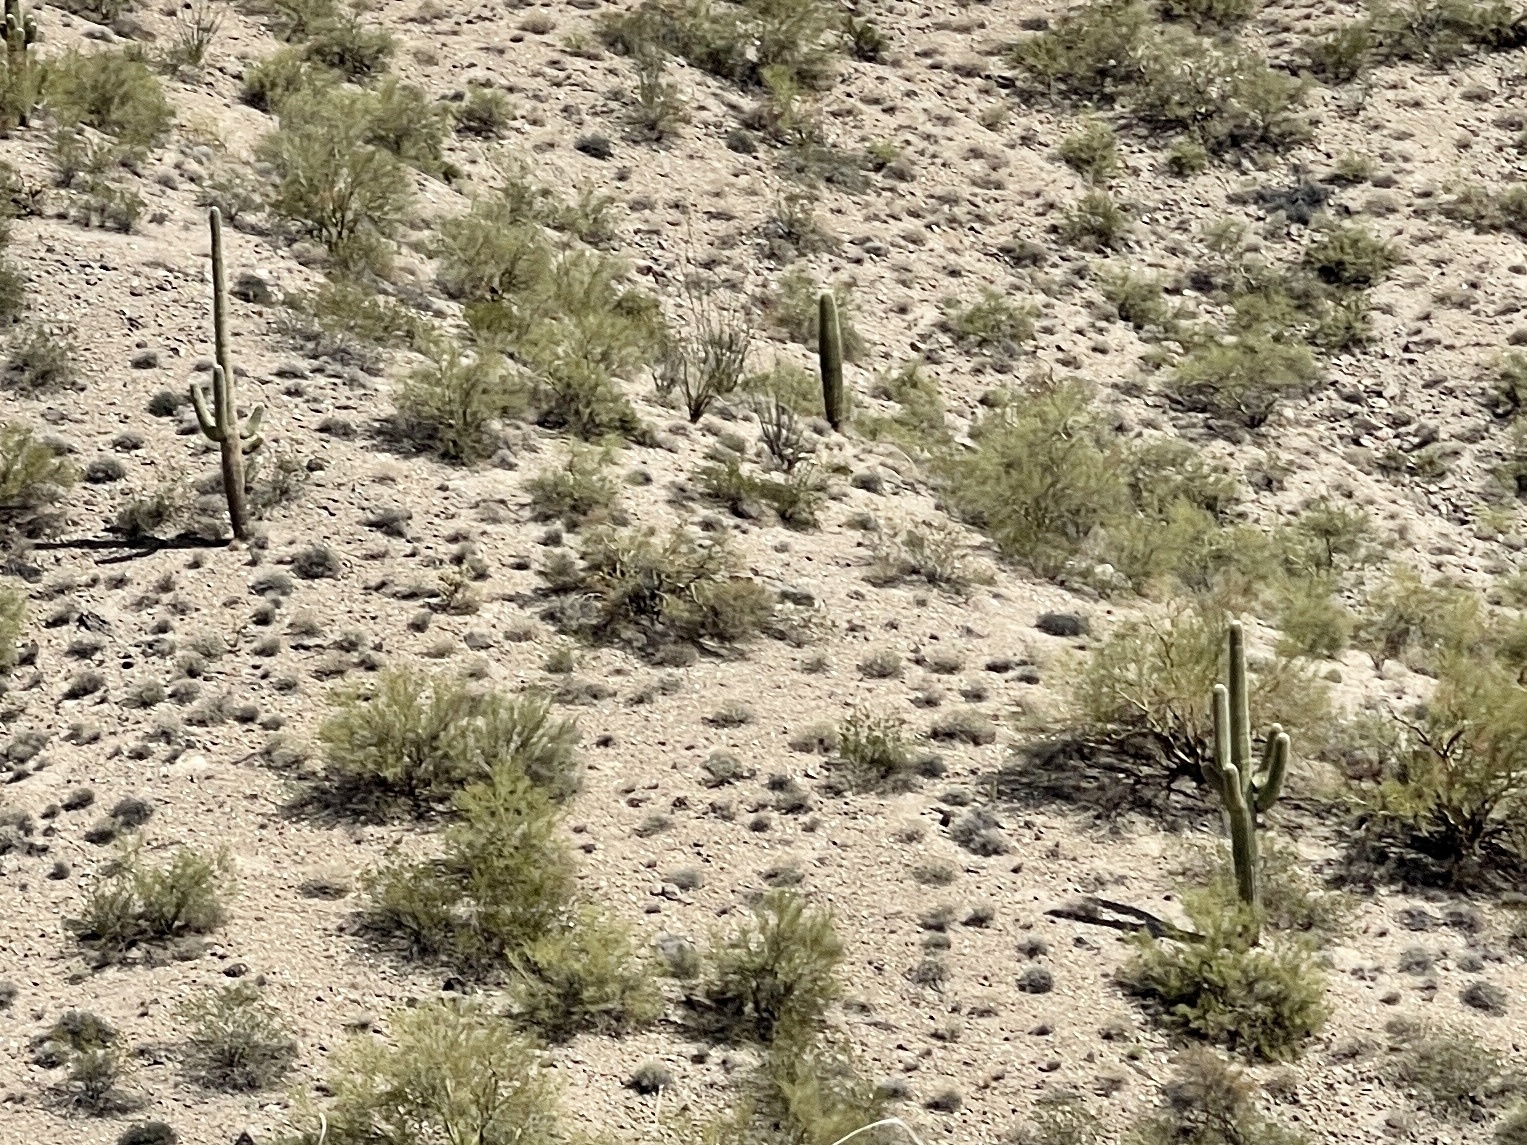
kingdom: Plantae
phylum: Tracheophyta
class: Magnoliopsida
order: Caryophyllales
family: Cactaceae
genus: Carnegiea
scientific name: Carnegiea gigantea
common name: Saguaro
